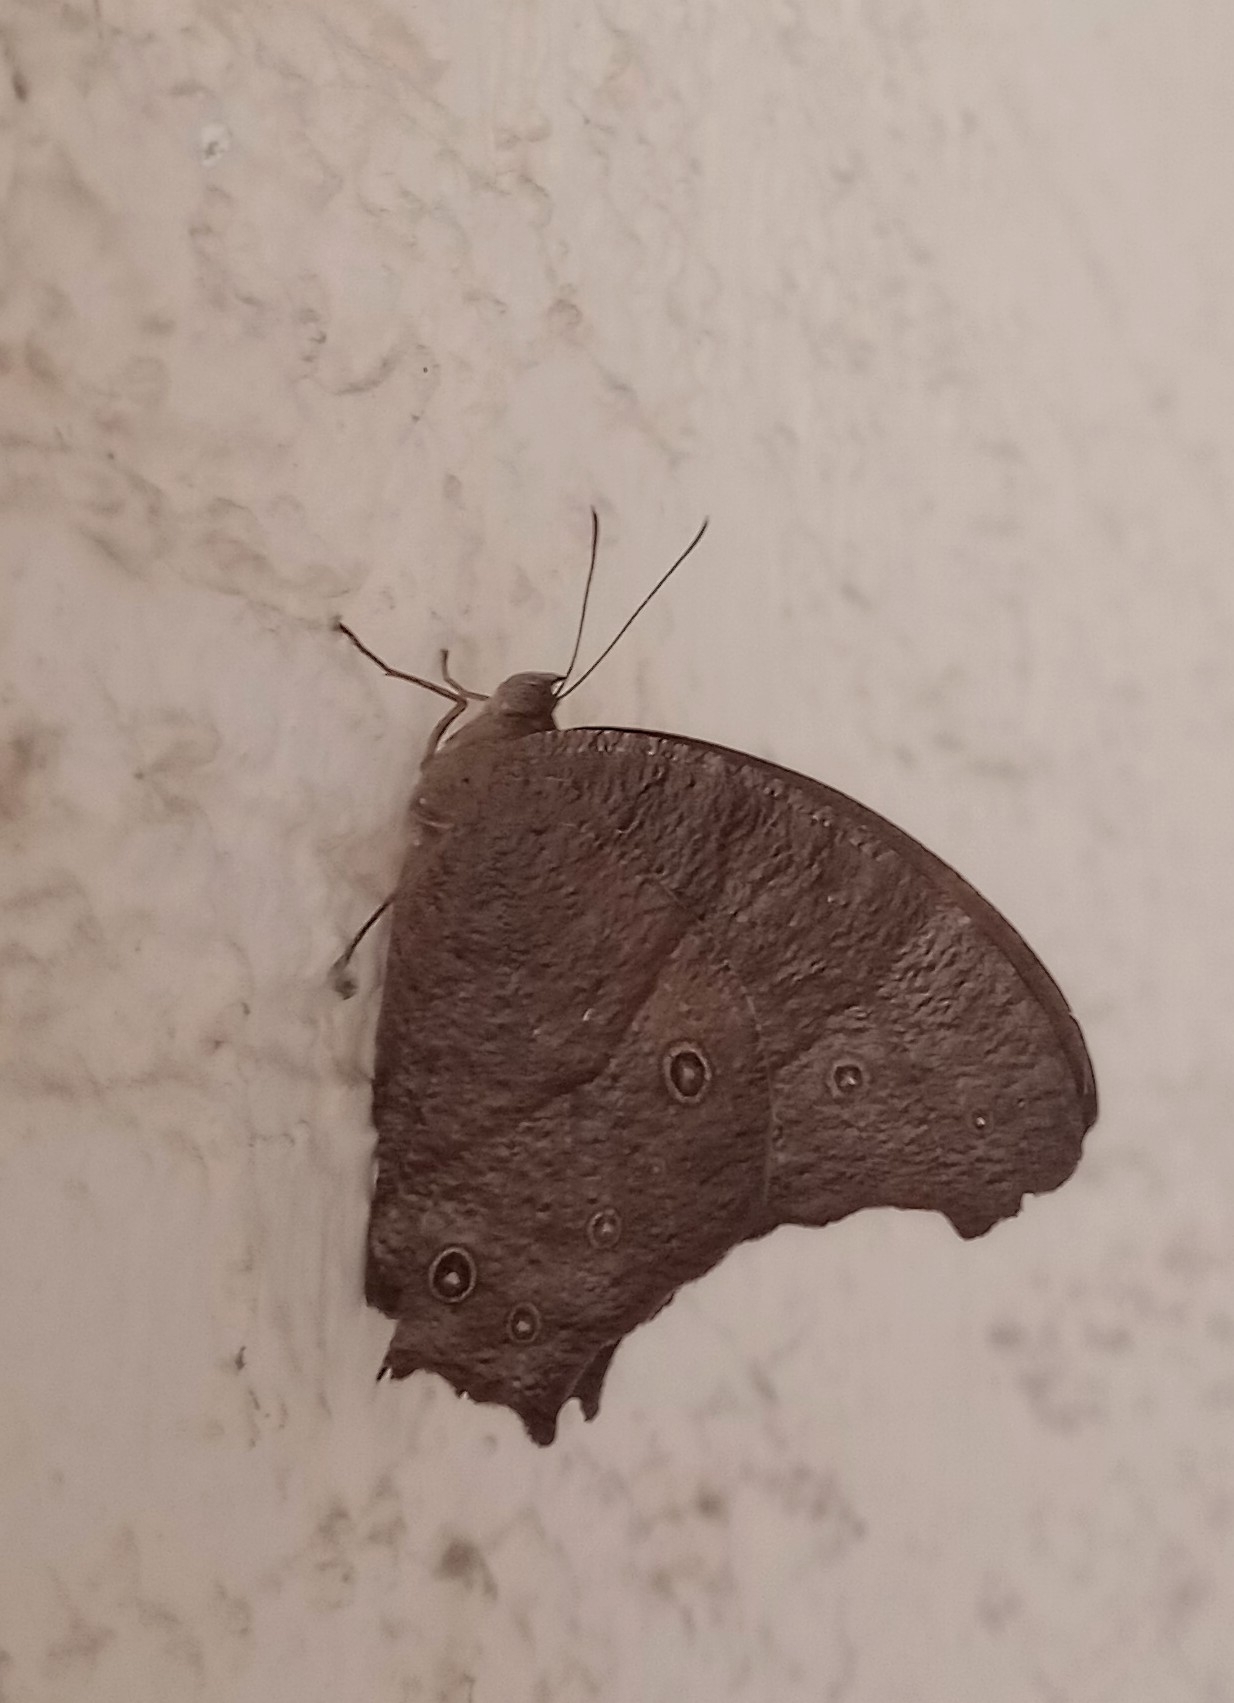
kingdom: Animalia
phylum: Arthropoda
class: Insecta
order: Lepidoptera
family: Nymphalidae
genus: Melanitis
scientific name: Melanitis leda
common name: Twilight brown
